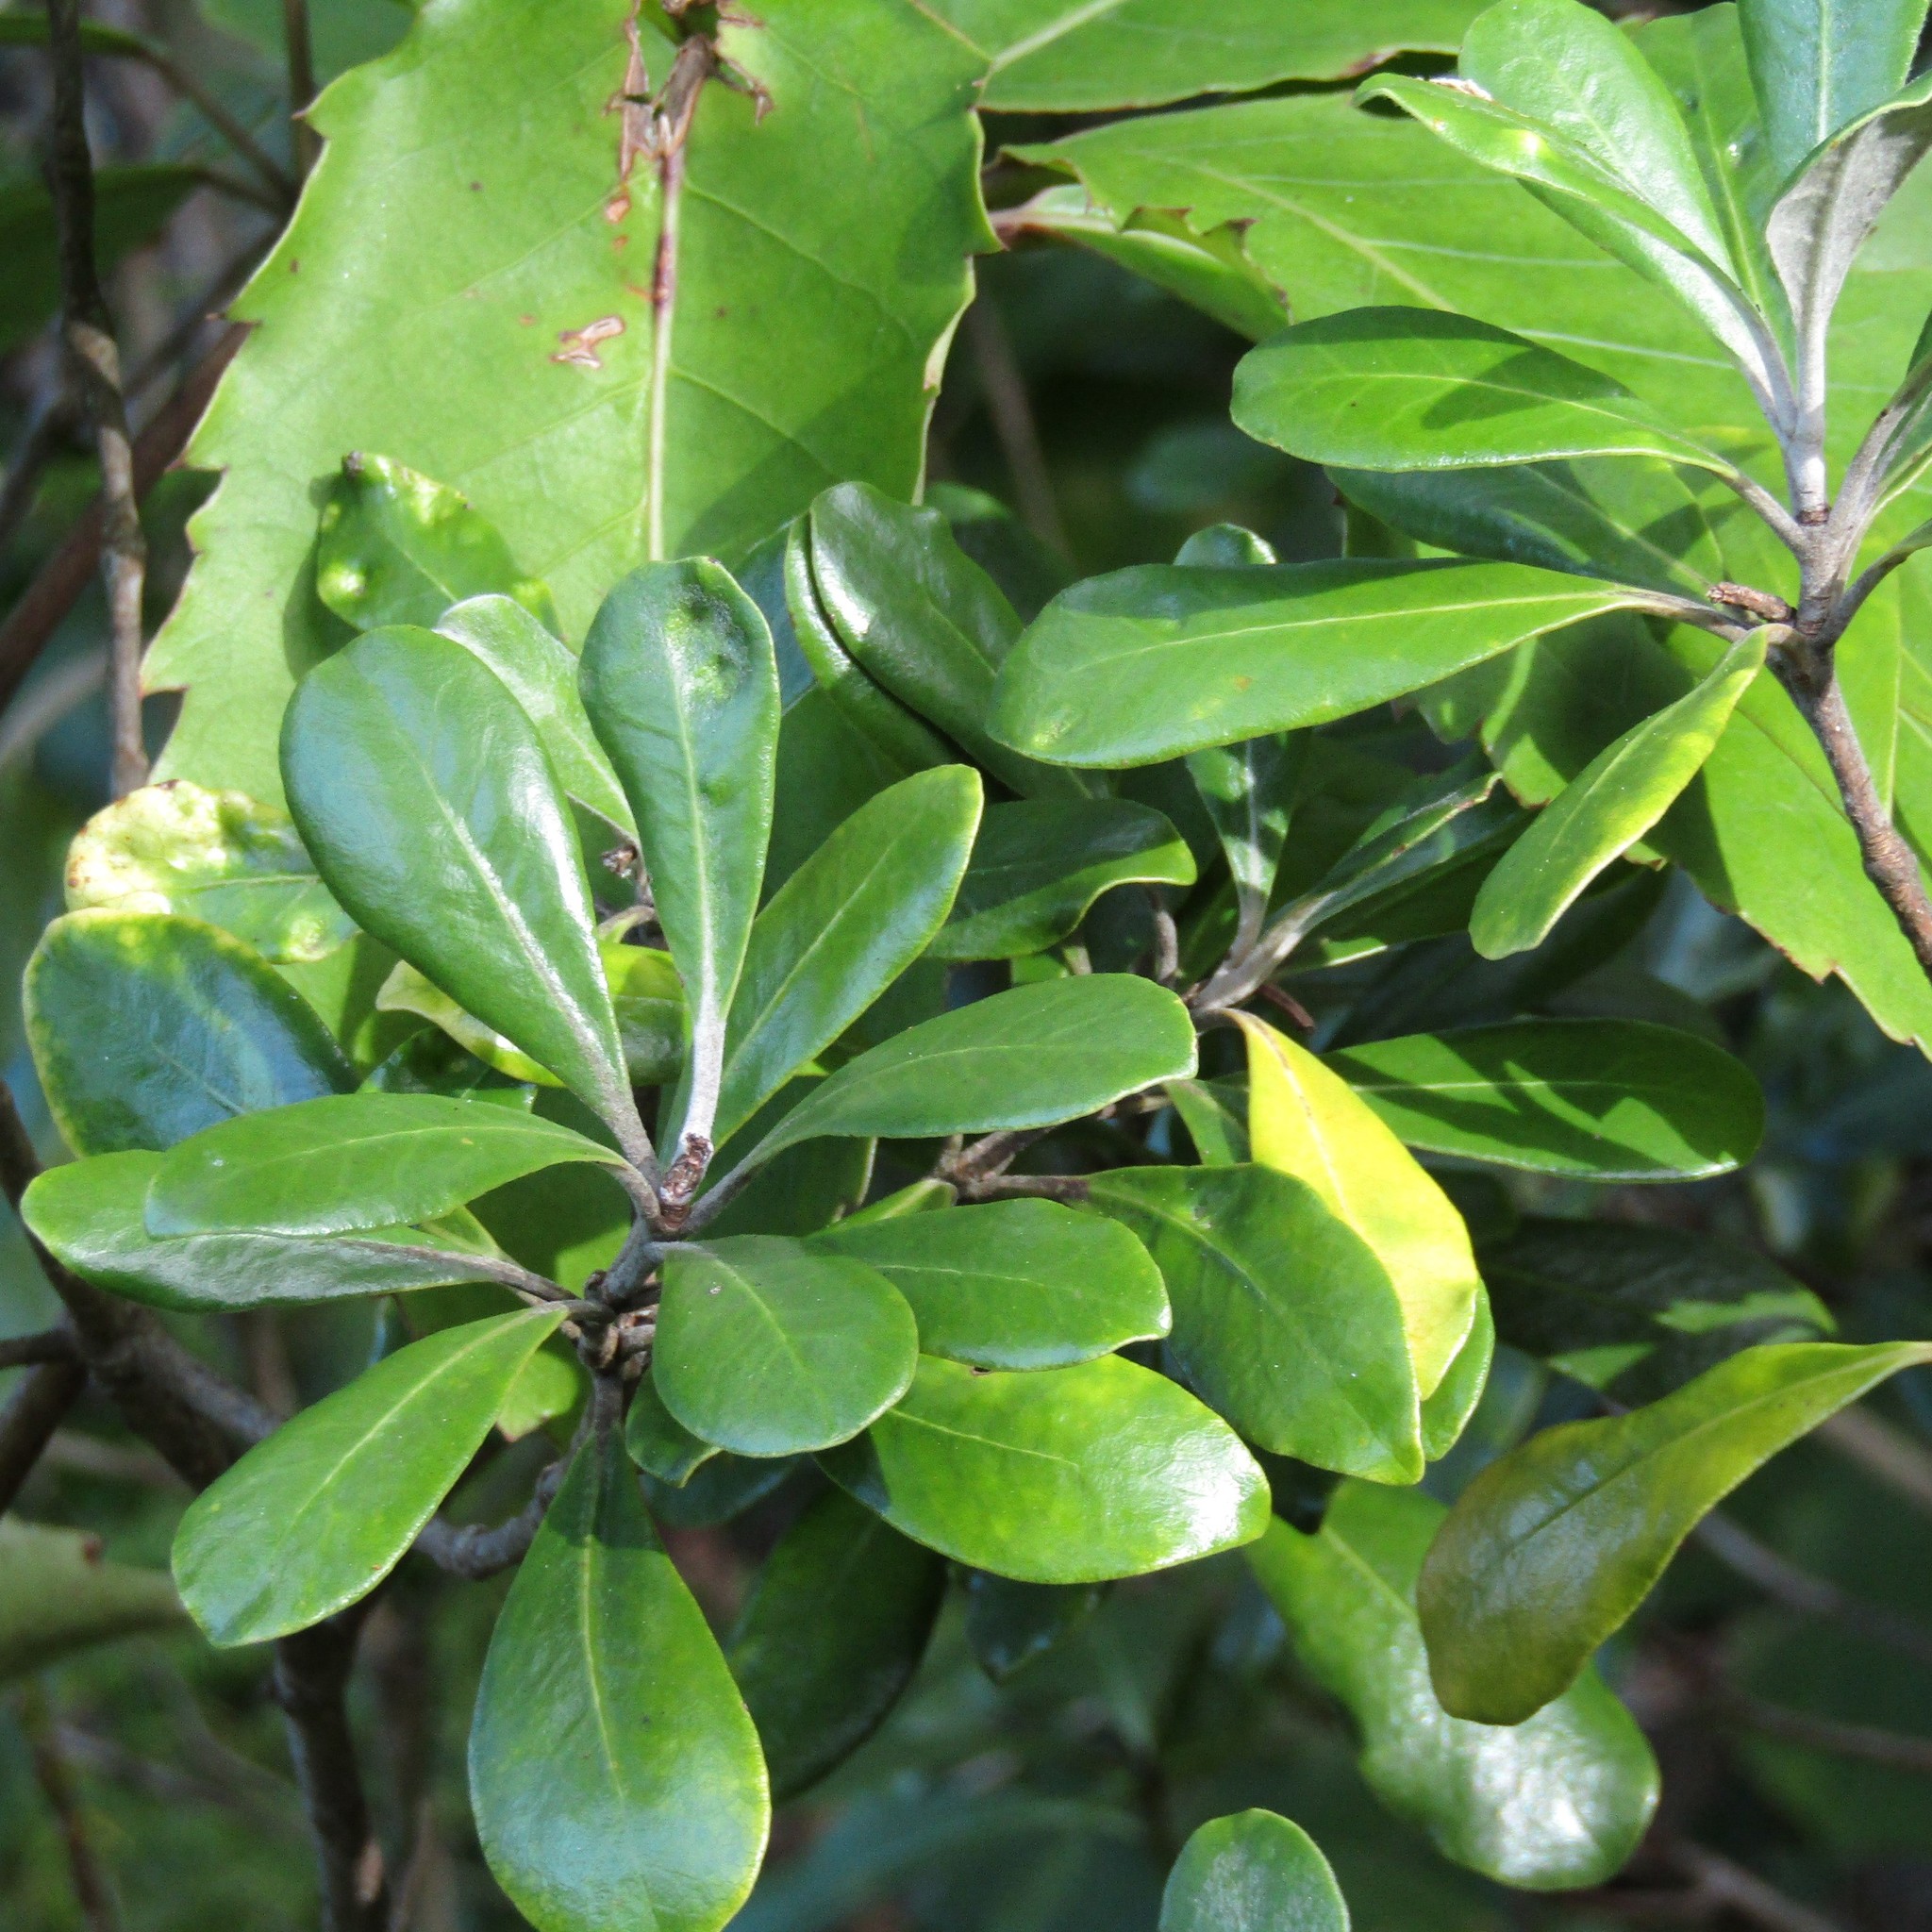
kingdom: Plantae
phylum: Tracheophyta
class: Magnoliopsida
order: Apiales
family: Pittosporaceae
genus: Pittosporum
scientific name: Pittosporum crassifolium
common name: Karo
